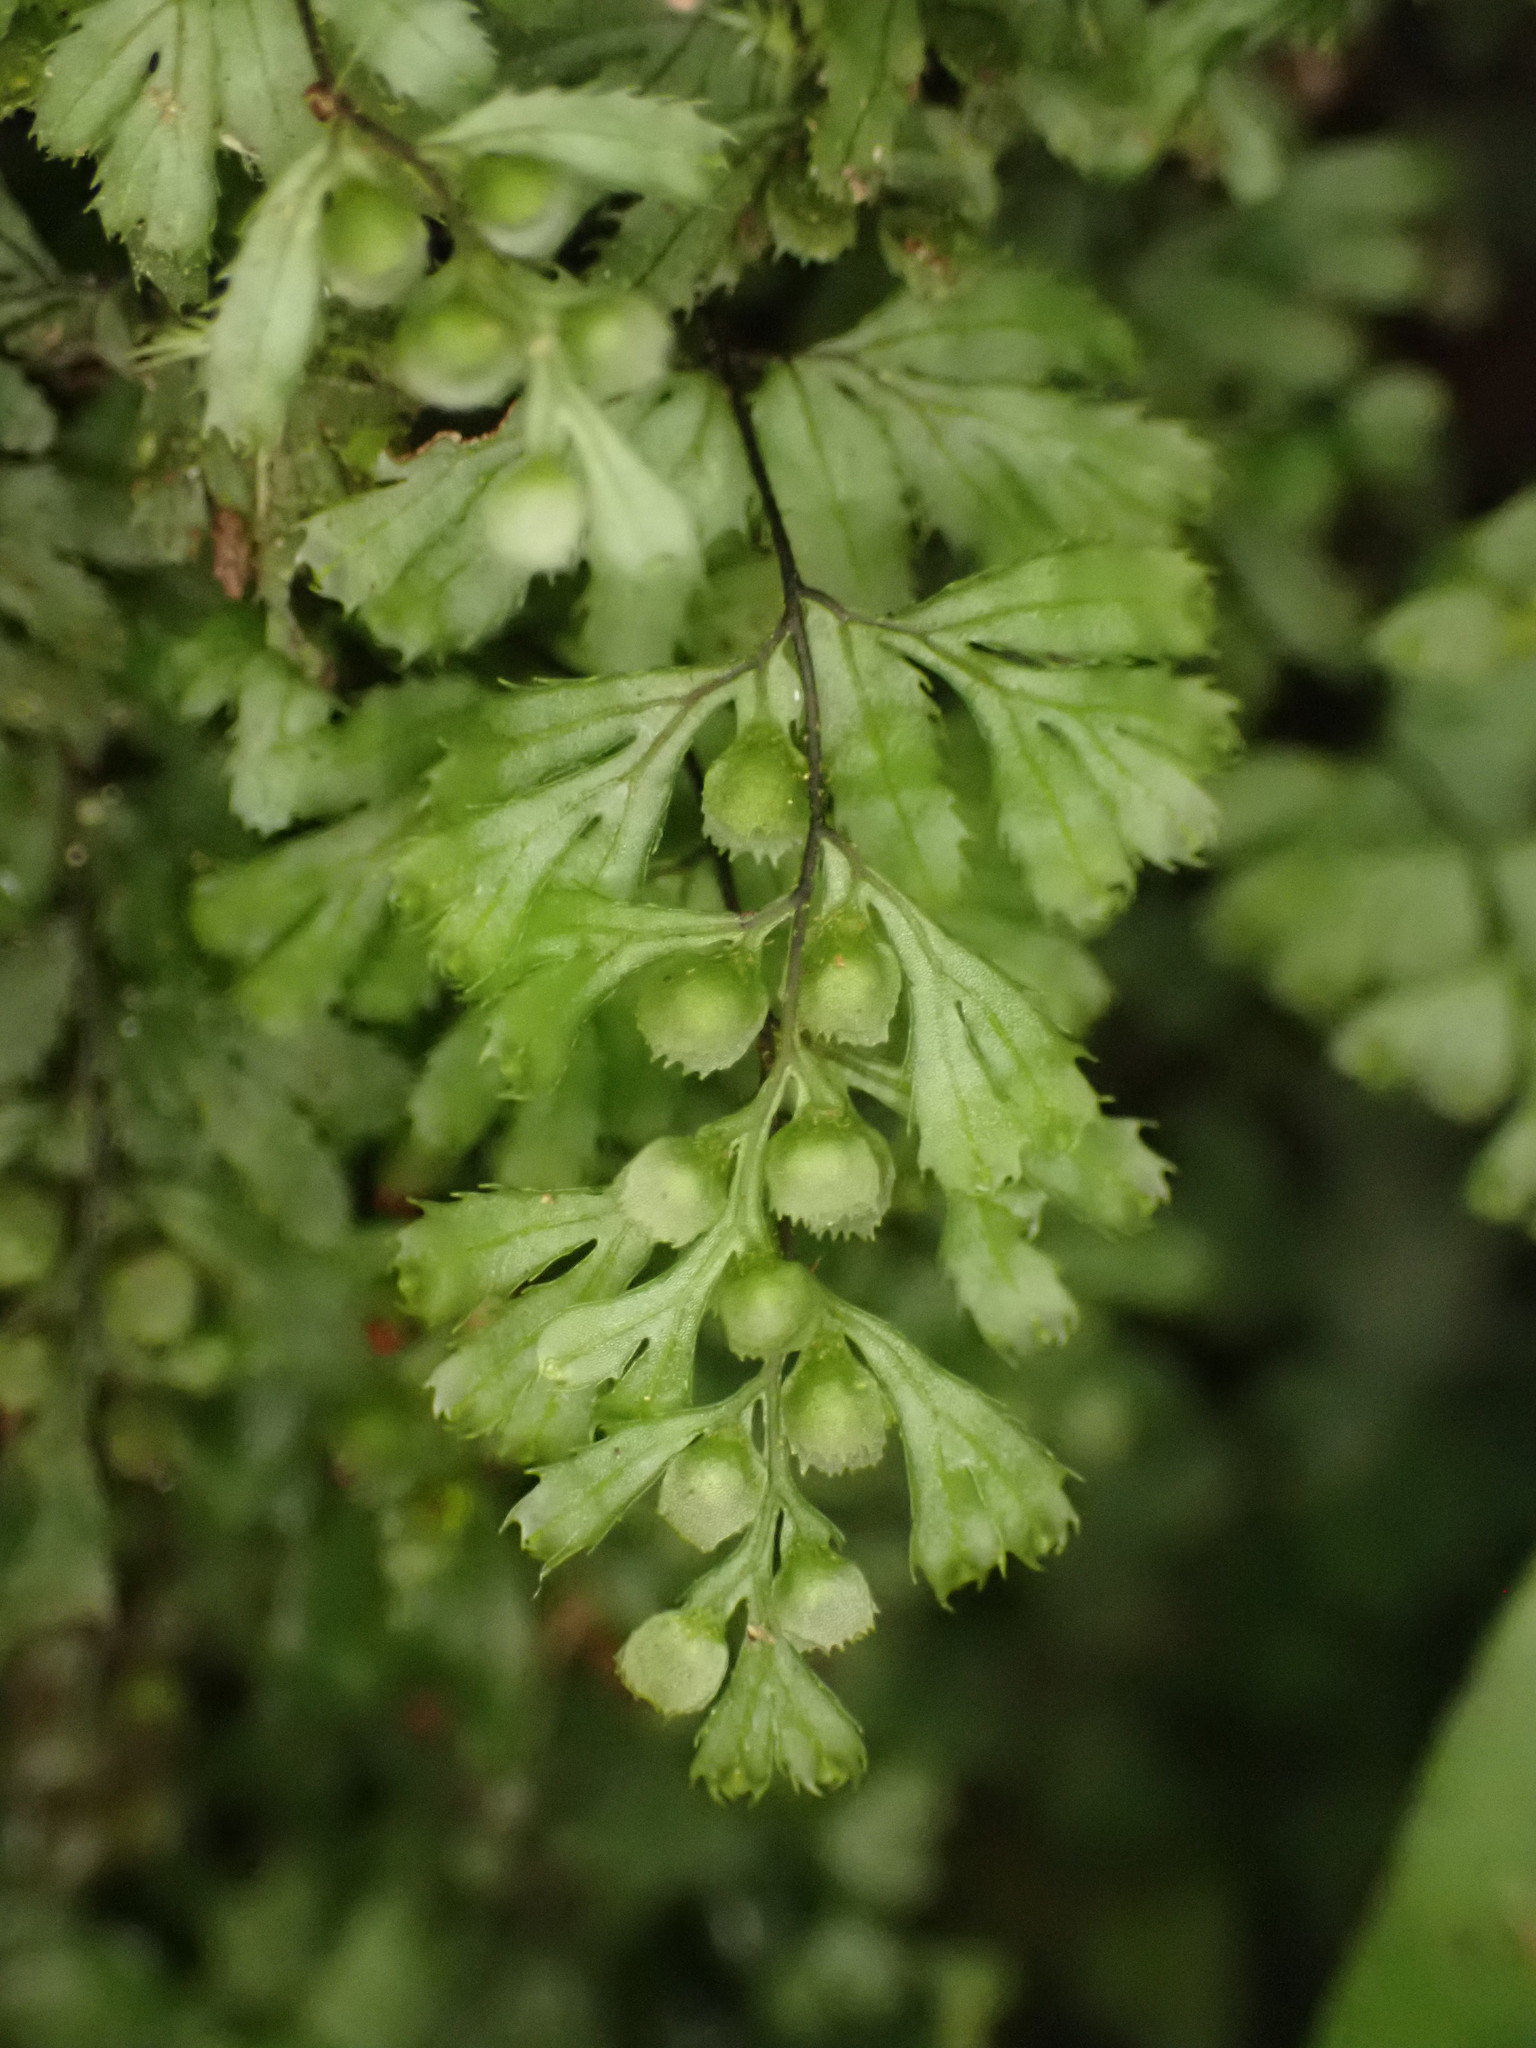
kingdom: Plantae
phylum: Tracheophyta
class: Polypodiopsida
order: Hymenophyllales
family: Hymenophyllaceae
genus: Hymenophyllum
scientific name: Hymenophyllum revolutum
